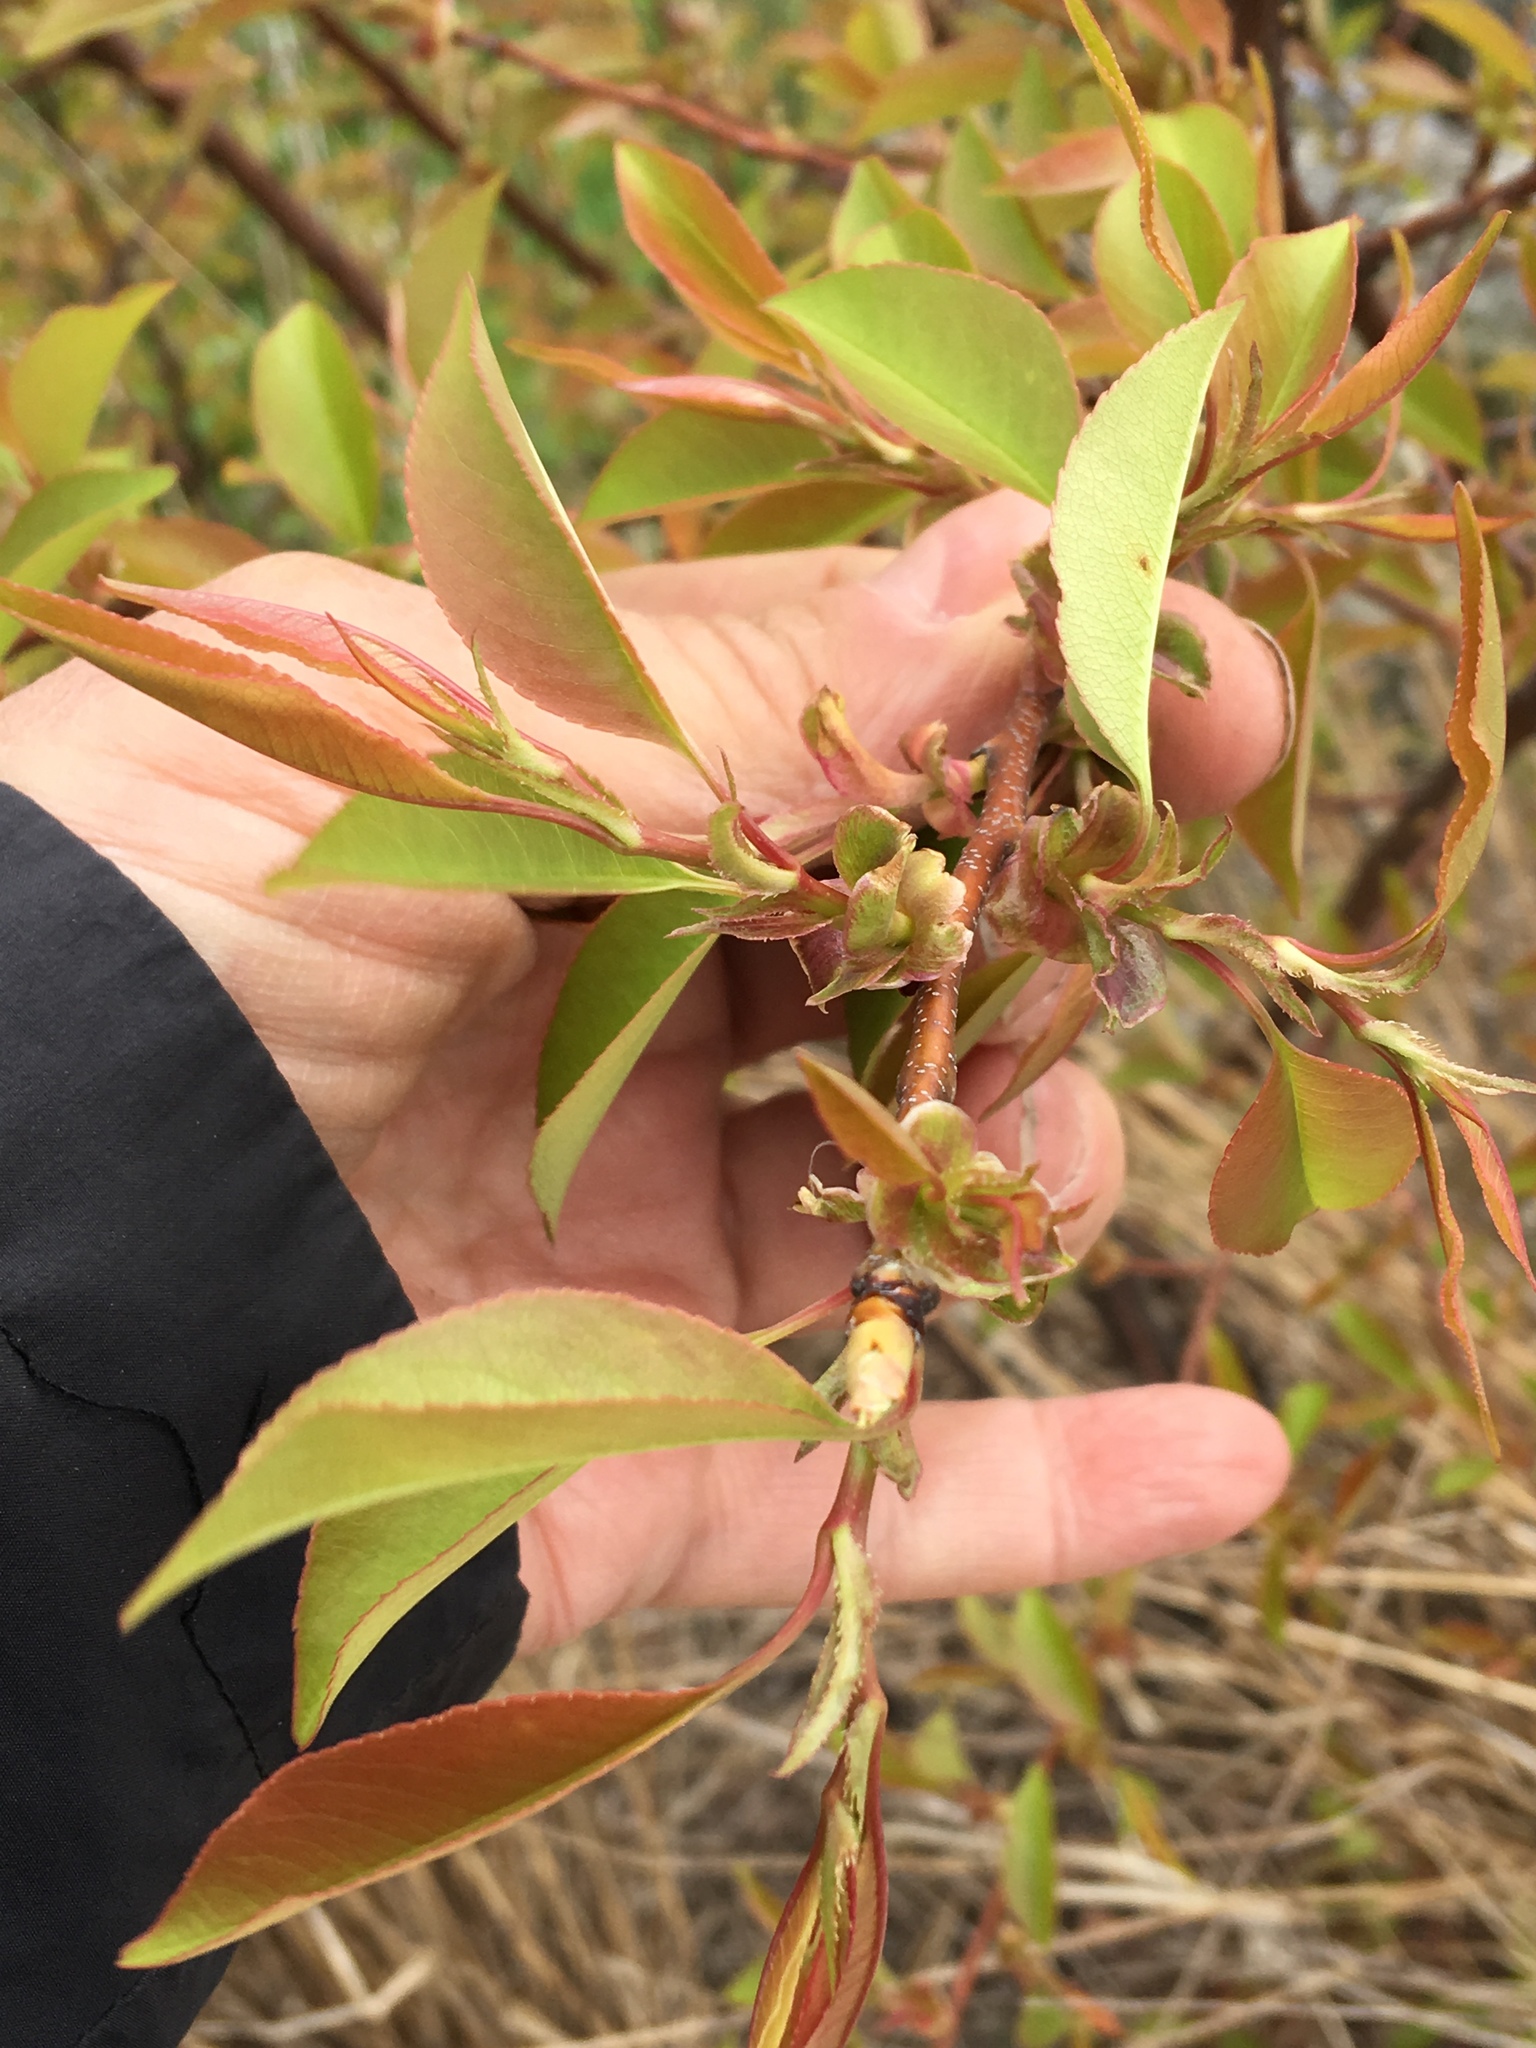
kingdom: Plantae
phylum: Tracheophyta
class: Magnoliopsida
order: Rosales
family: Rosaceae
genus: Prunus
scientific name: Prunus serotina
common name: Black cherry
